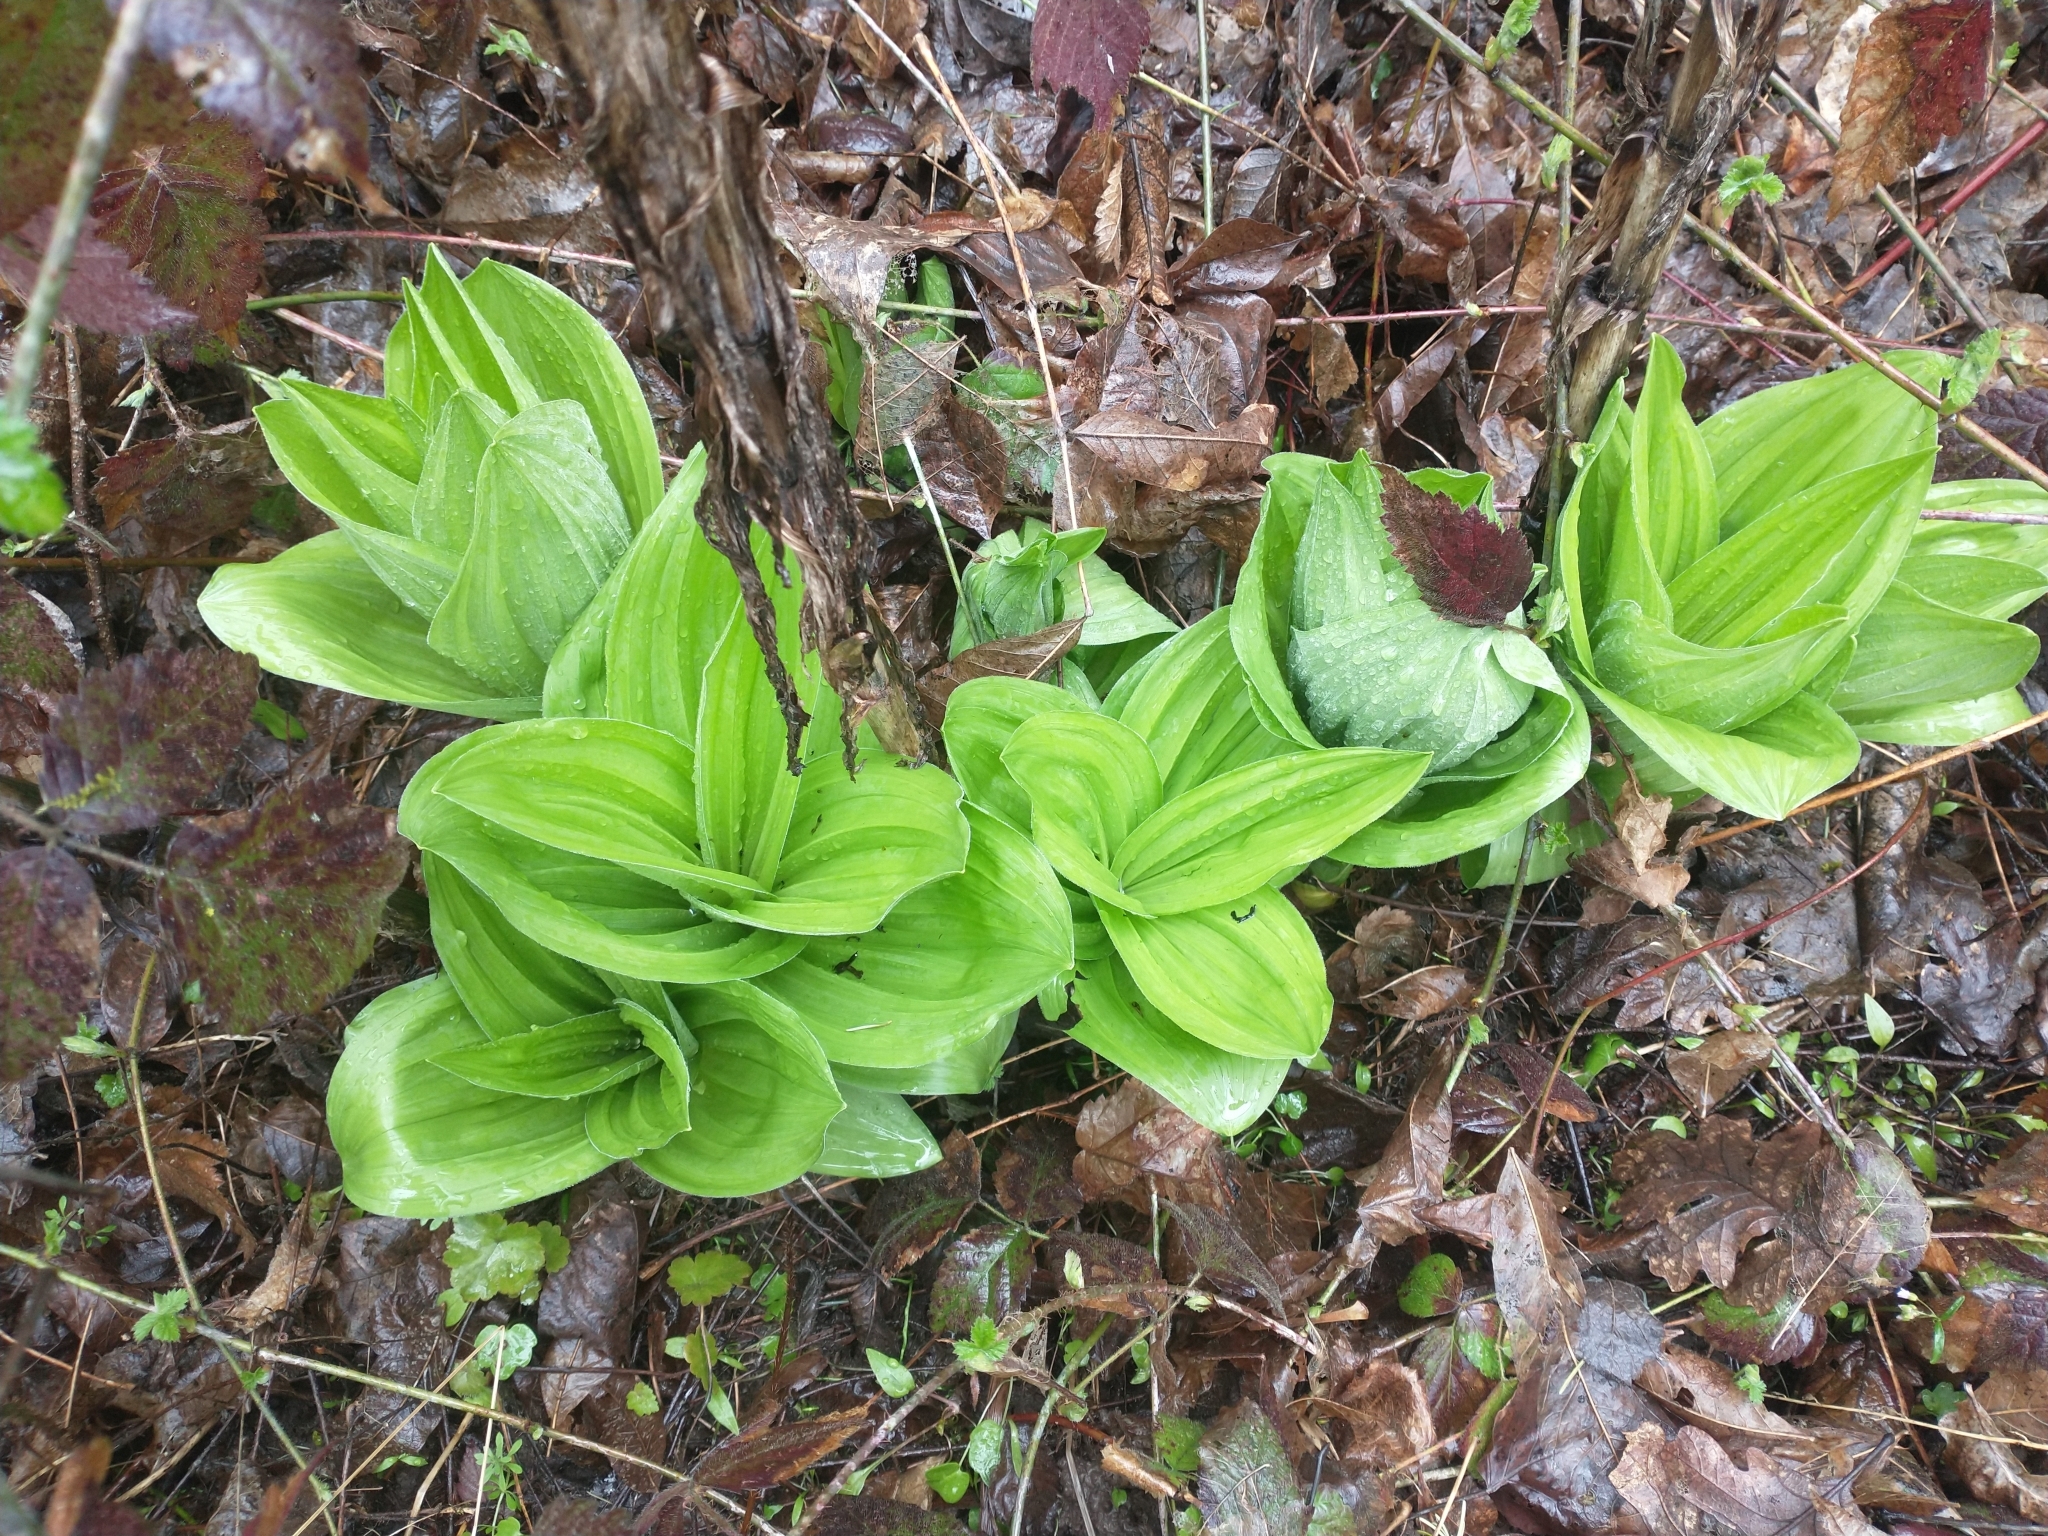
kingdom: Plantae
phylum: Tracheophyta
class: Liliopsida
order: Liliales
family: Melanthiaceae
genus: Veratrum
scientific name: Veratrum californicum
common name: California veratrum
